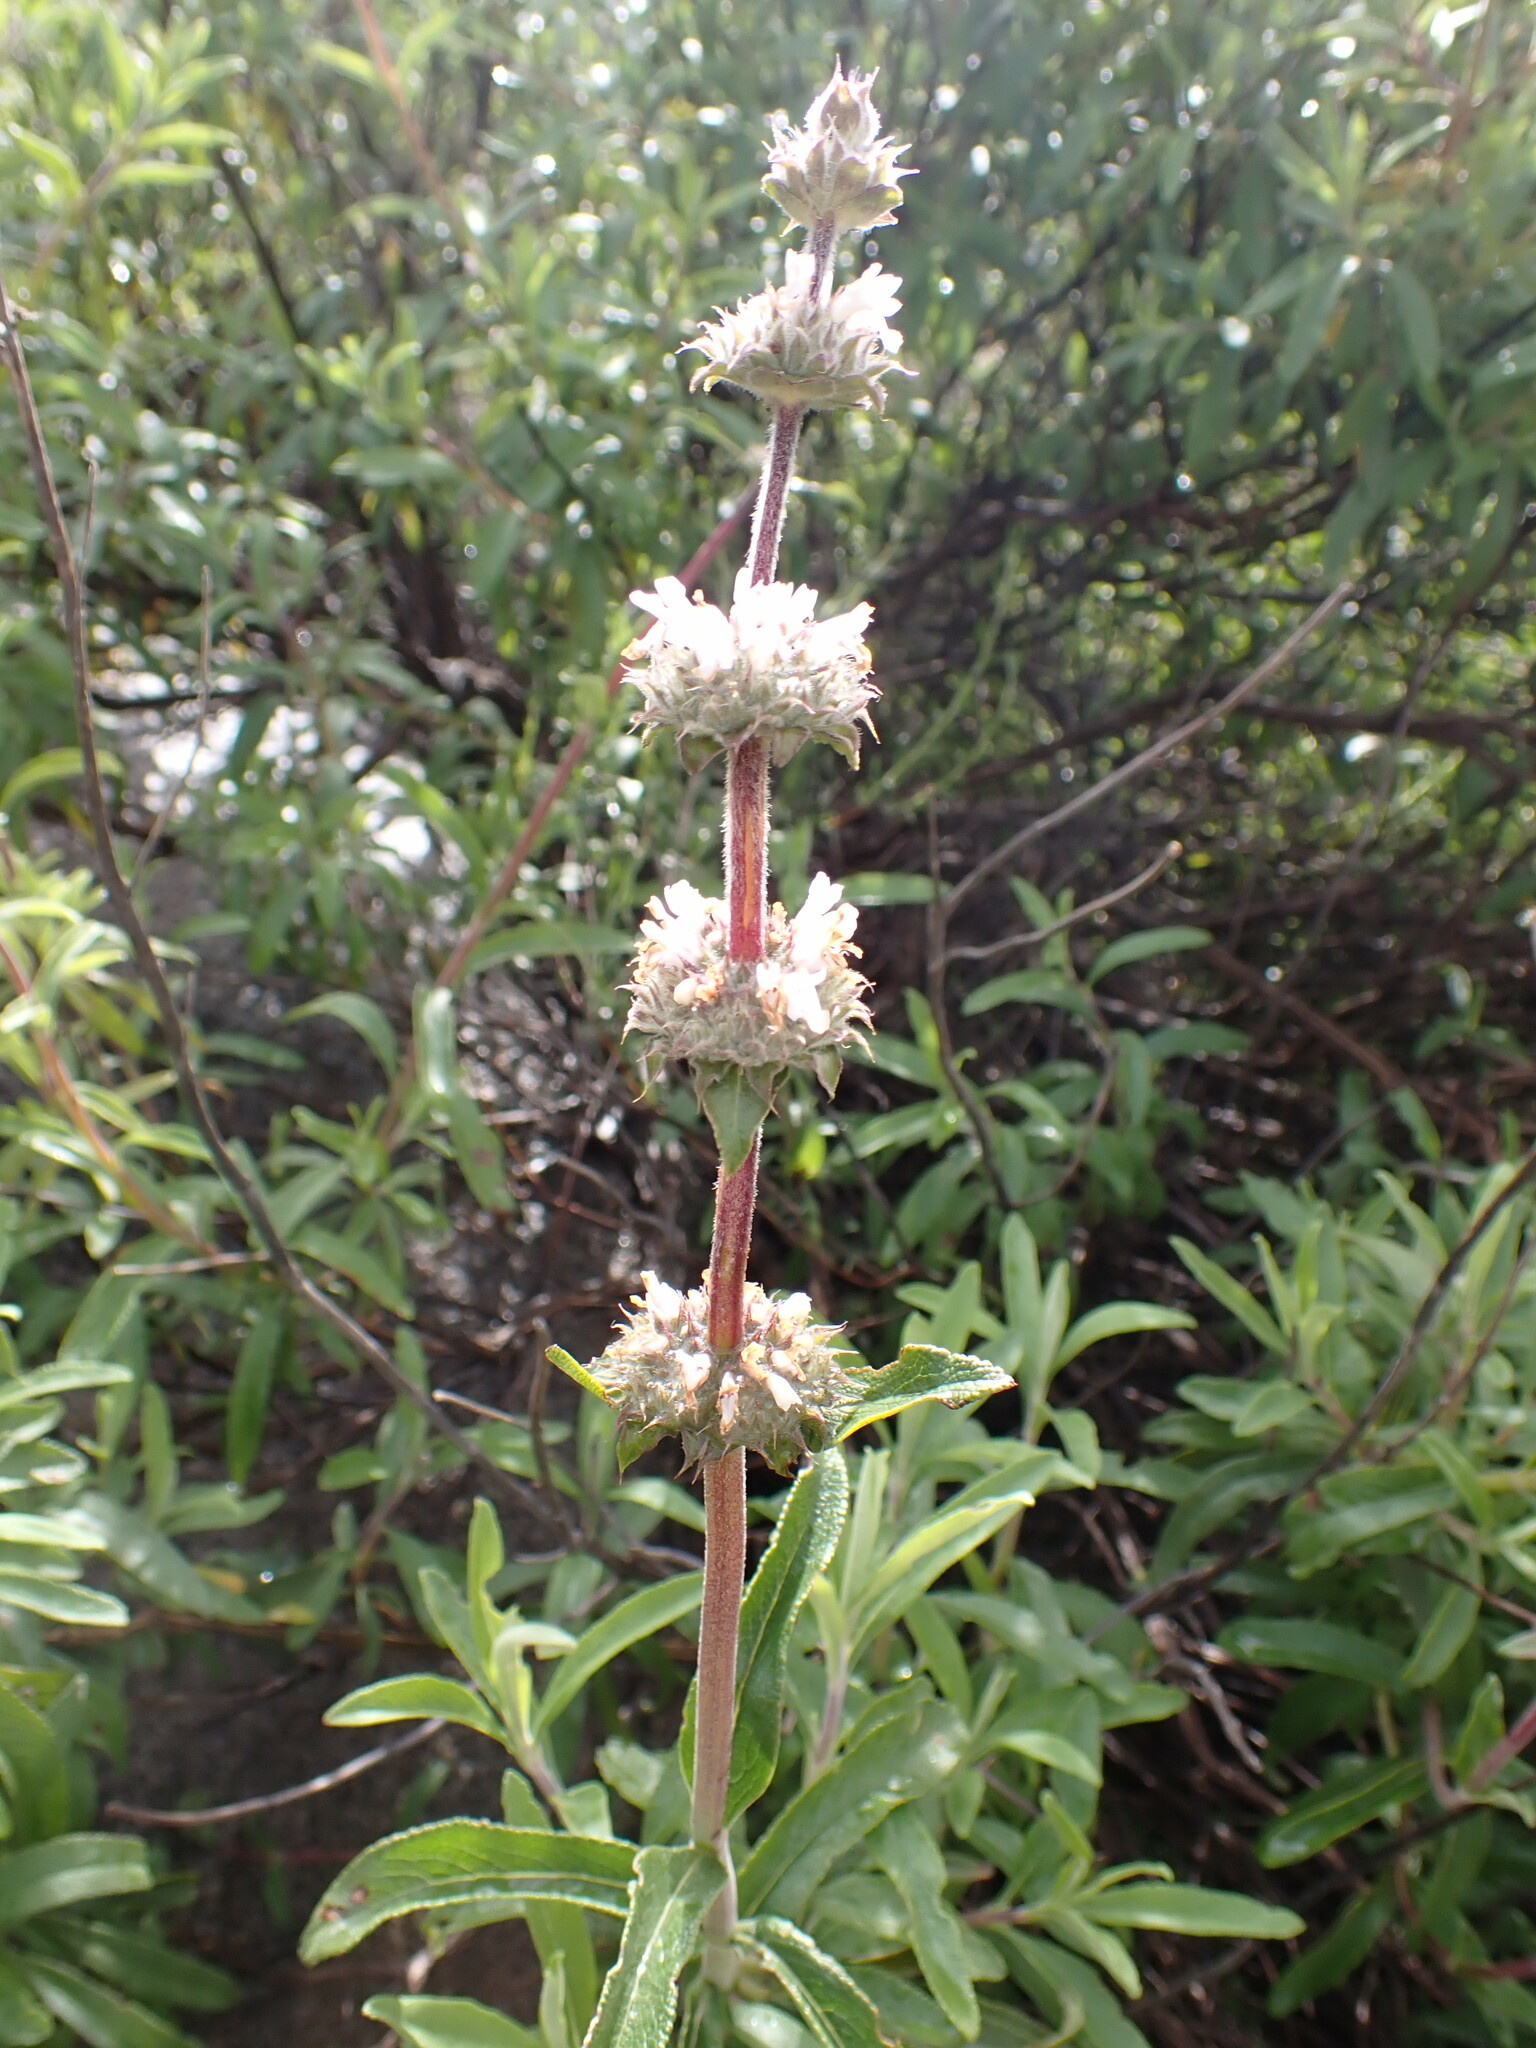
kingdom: Plantae
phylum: Tracheophyta
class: Magnoliopsida
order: Lamiales
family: Lamiaceae
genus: Salvia
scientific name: Salvia mellifera
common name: Black sage
